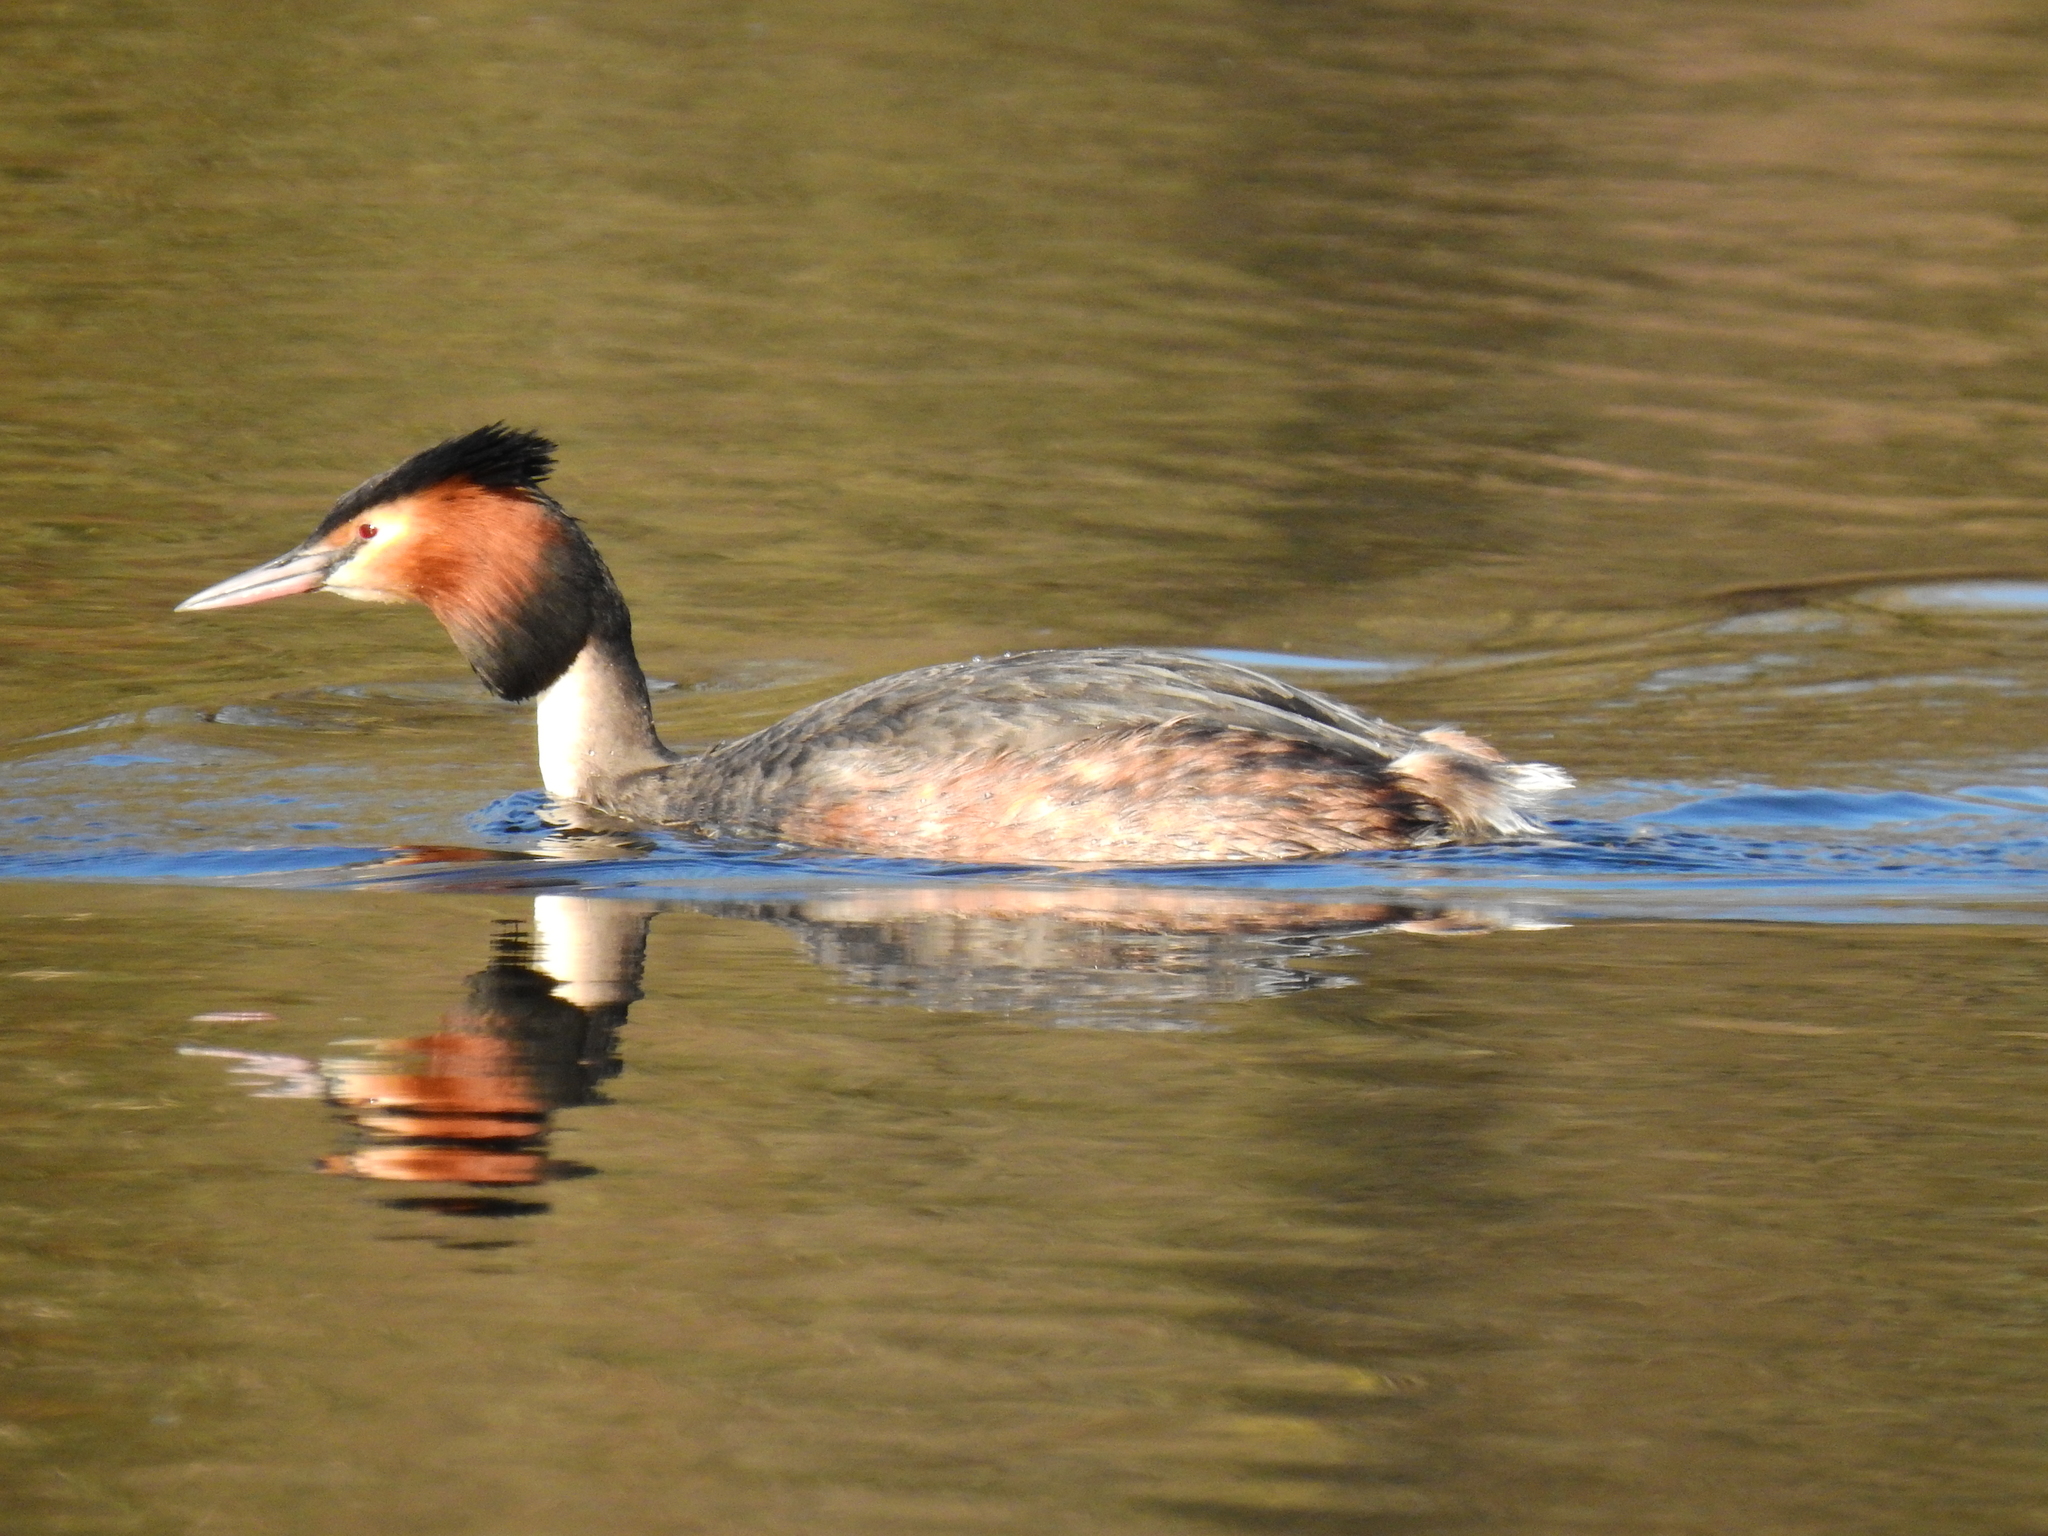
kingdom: Animalia
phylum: Chordata
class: Aves
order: Podicipediformes
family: Podicipedidae
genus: Podiceps
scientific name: Podiceps cristatus
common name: Great crested grebe
